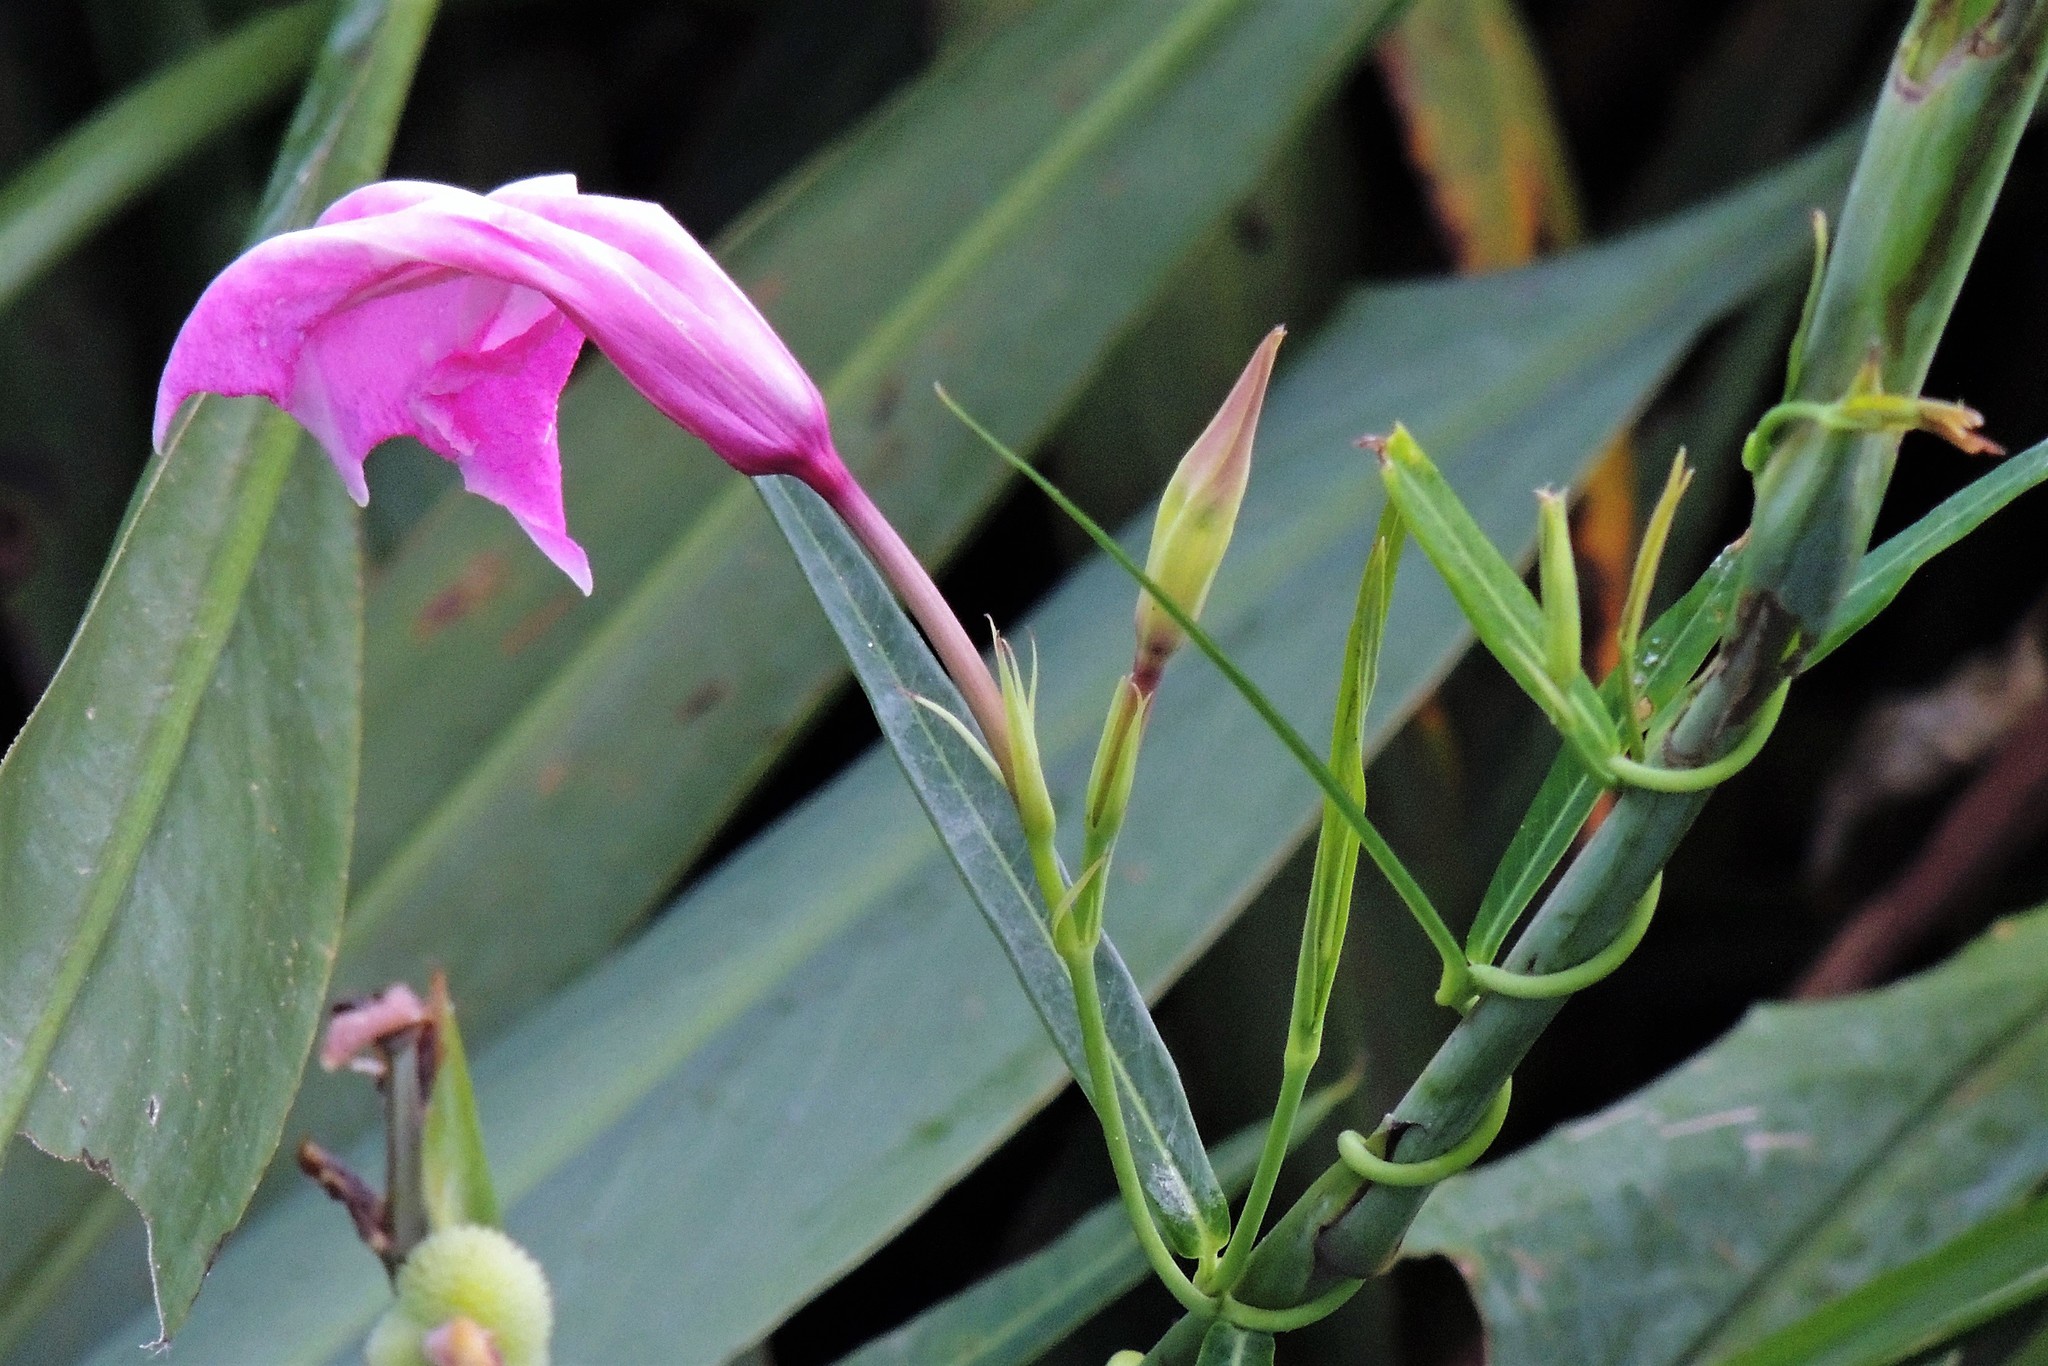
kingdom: Plantae
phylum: Tracheophyta
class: Magnoliopsida
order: Gentianales
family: Apocynaceae
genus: Rhabdadenia
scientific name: Rhabdadenia ragonesei
